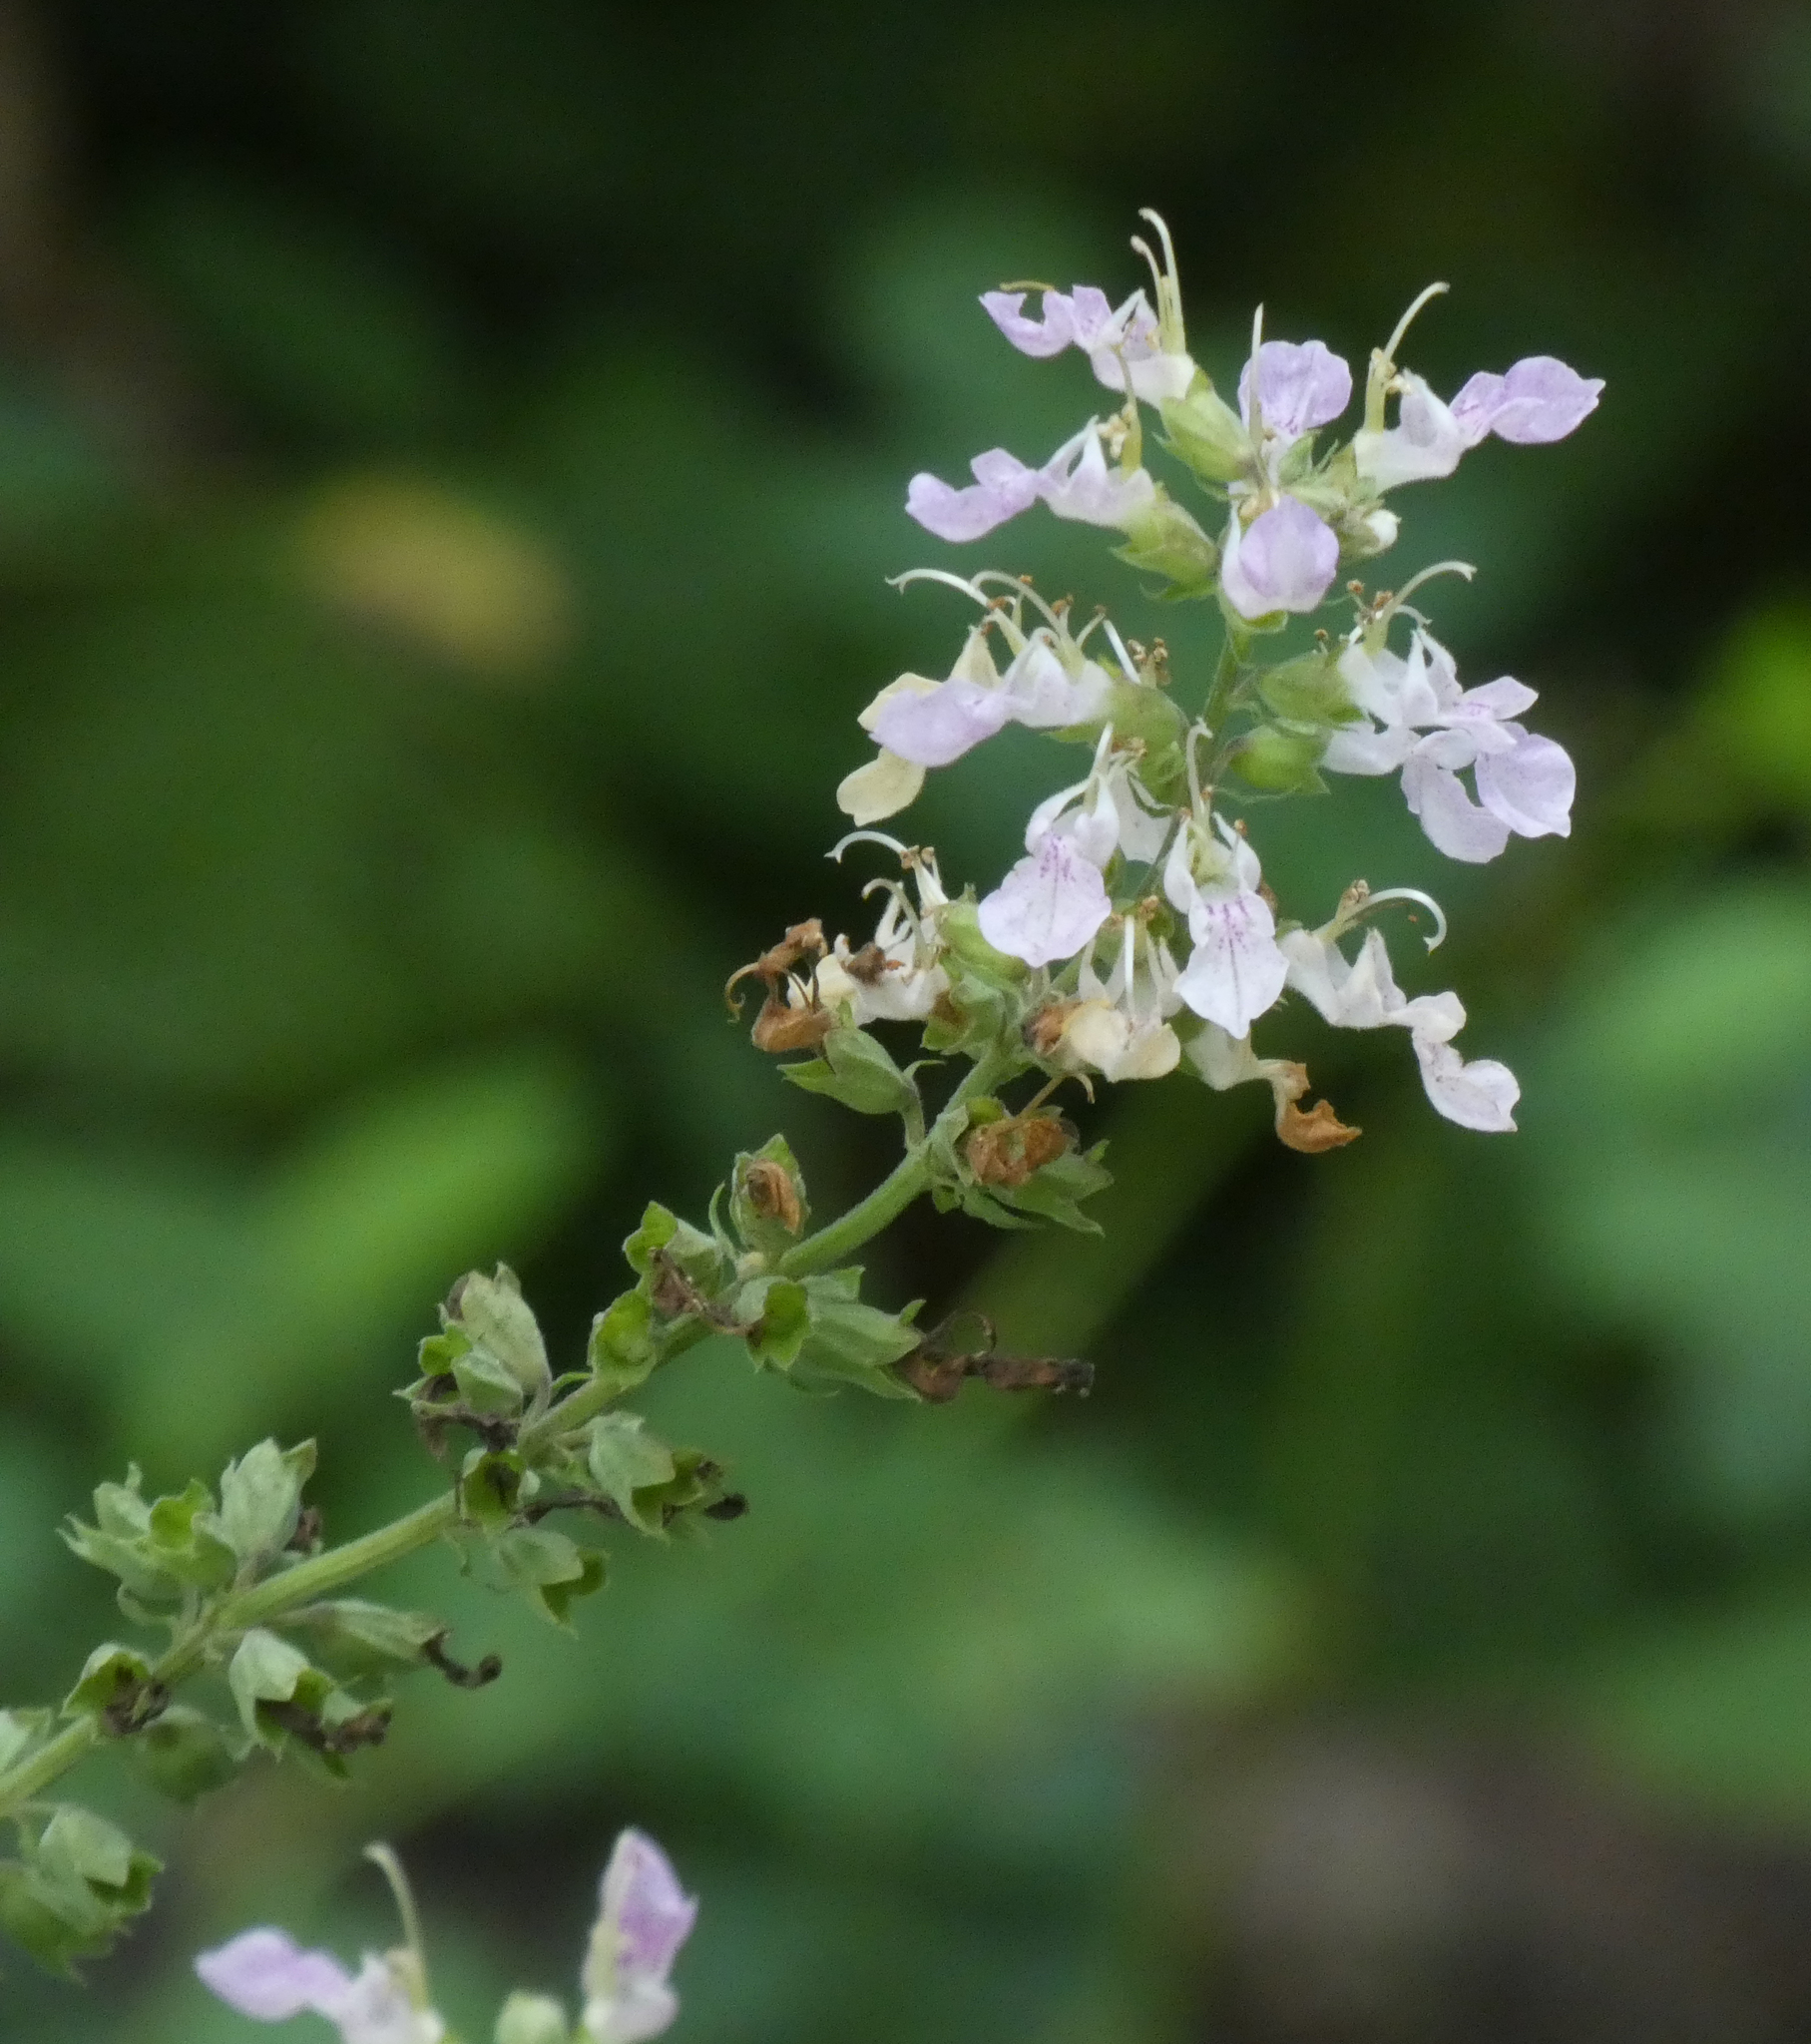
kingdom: Plantae
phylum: Tracheophyta
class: Magnoliopsida
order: Lamiales
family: Lamiaceae
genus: Teucrium
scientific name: Teucrium canadense
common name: American germander
